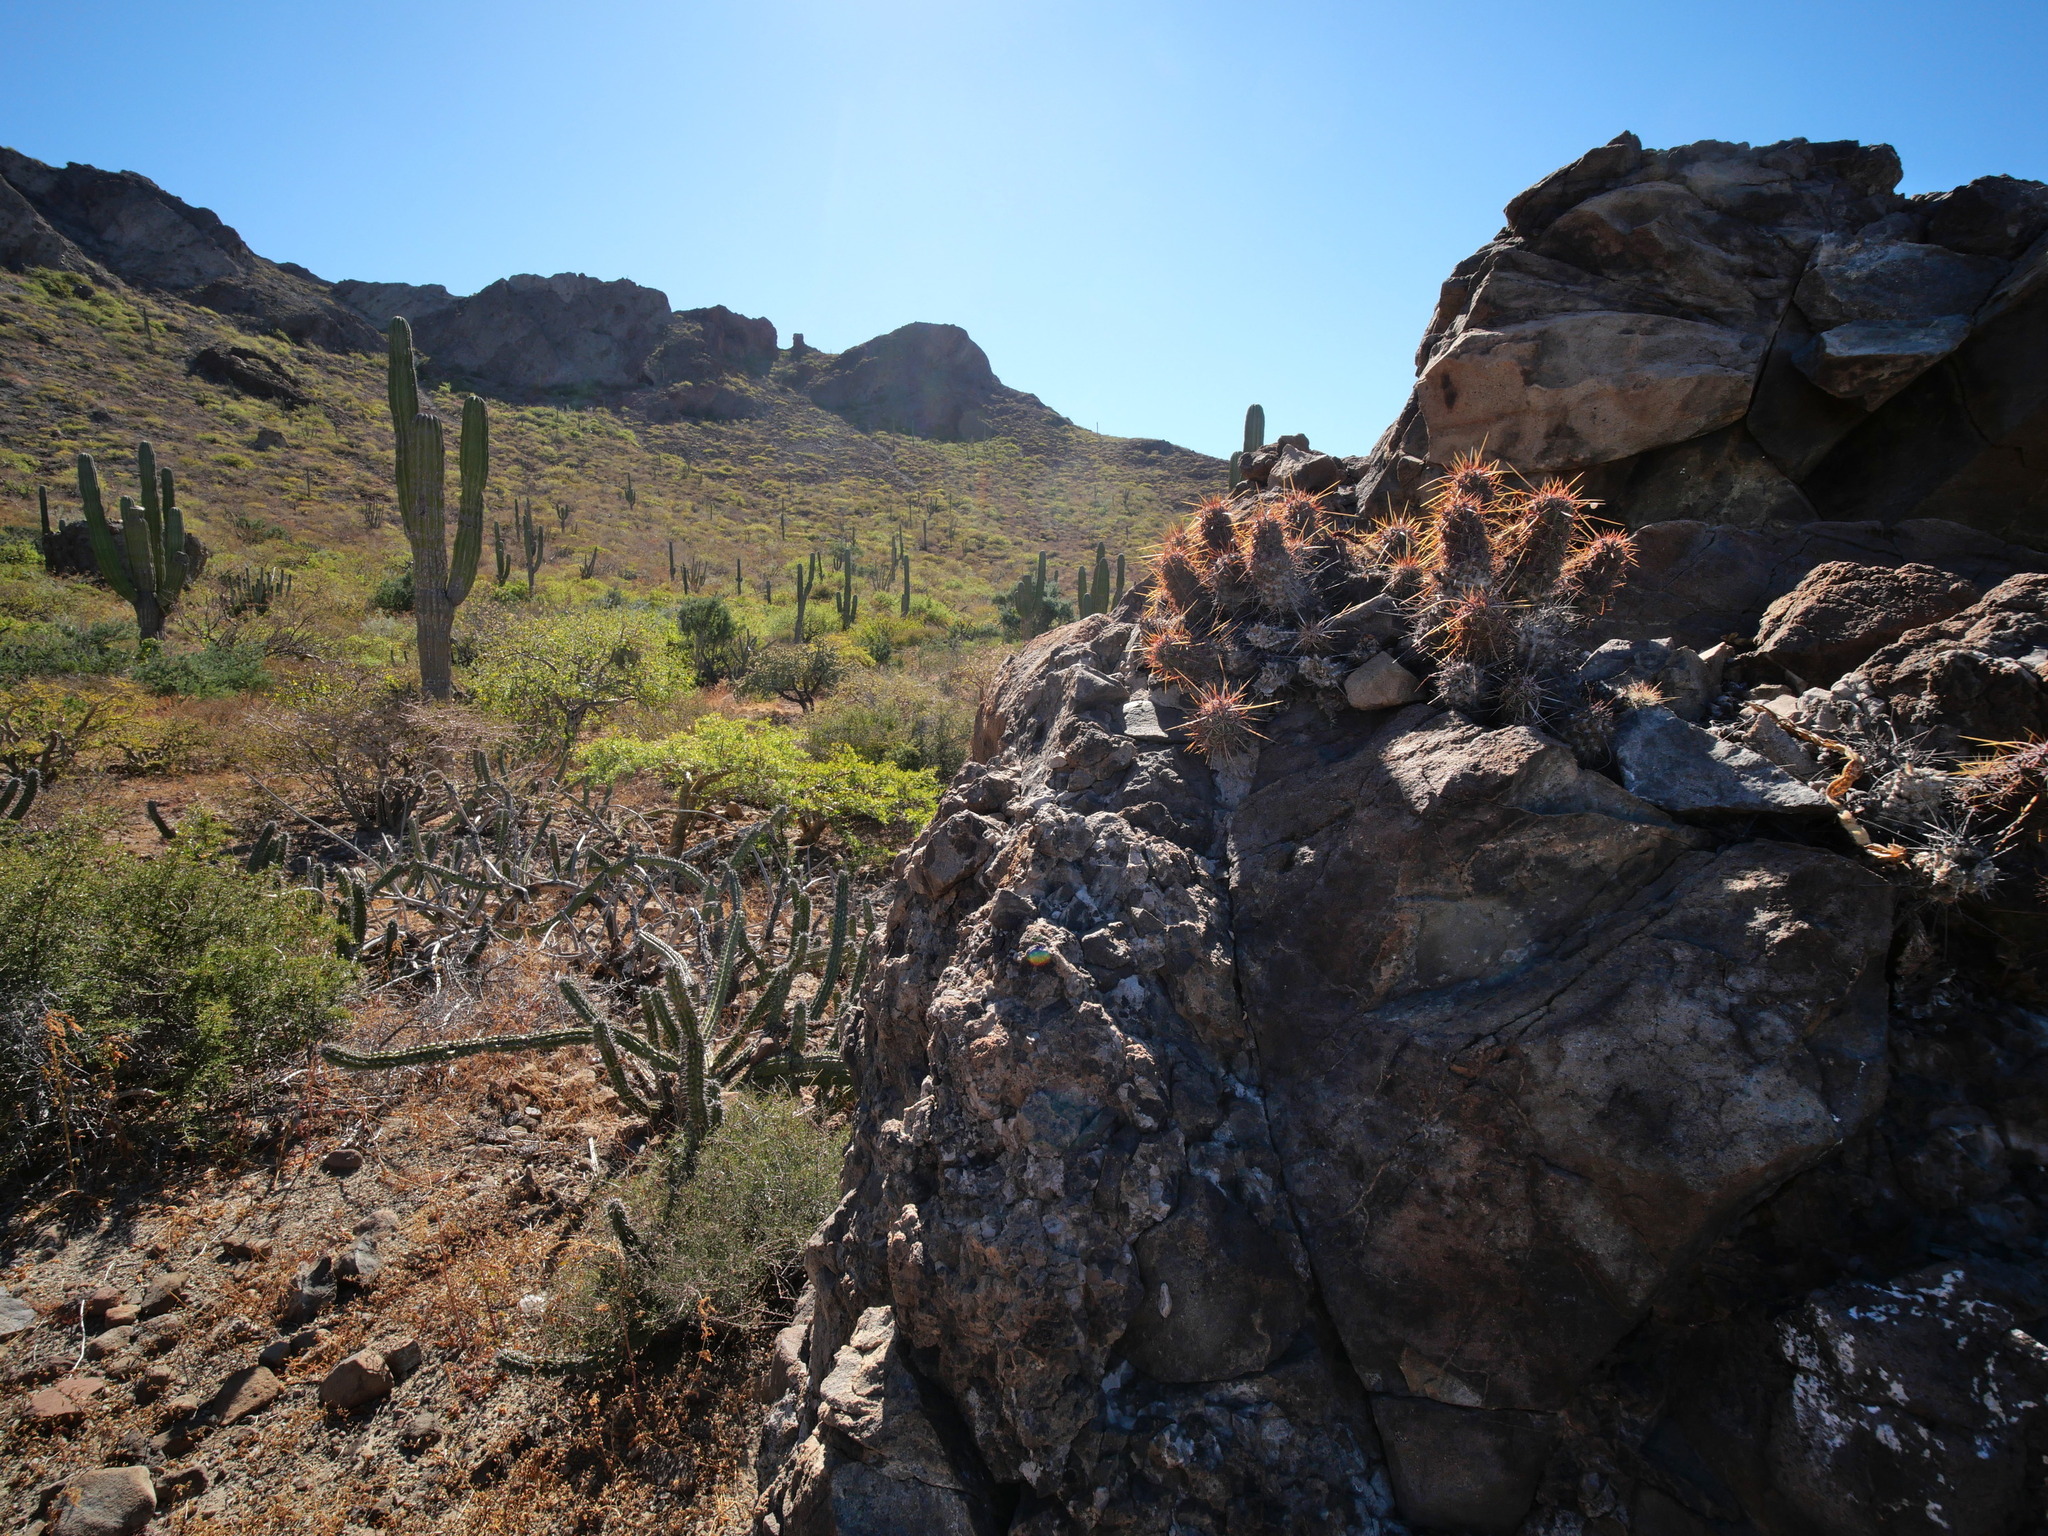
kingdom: Plantae
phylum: Tracheophyta
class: Magnoliopsida
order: Caryophyllales
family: Cactaceae
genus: Echinocereus
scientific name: Echinocereus brandegeei
